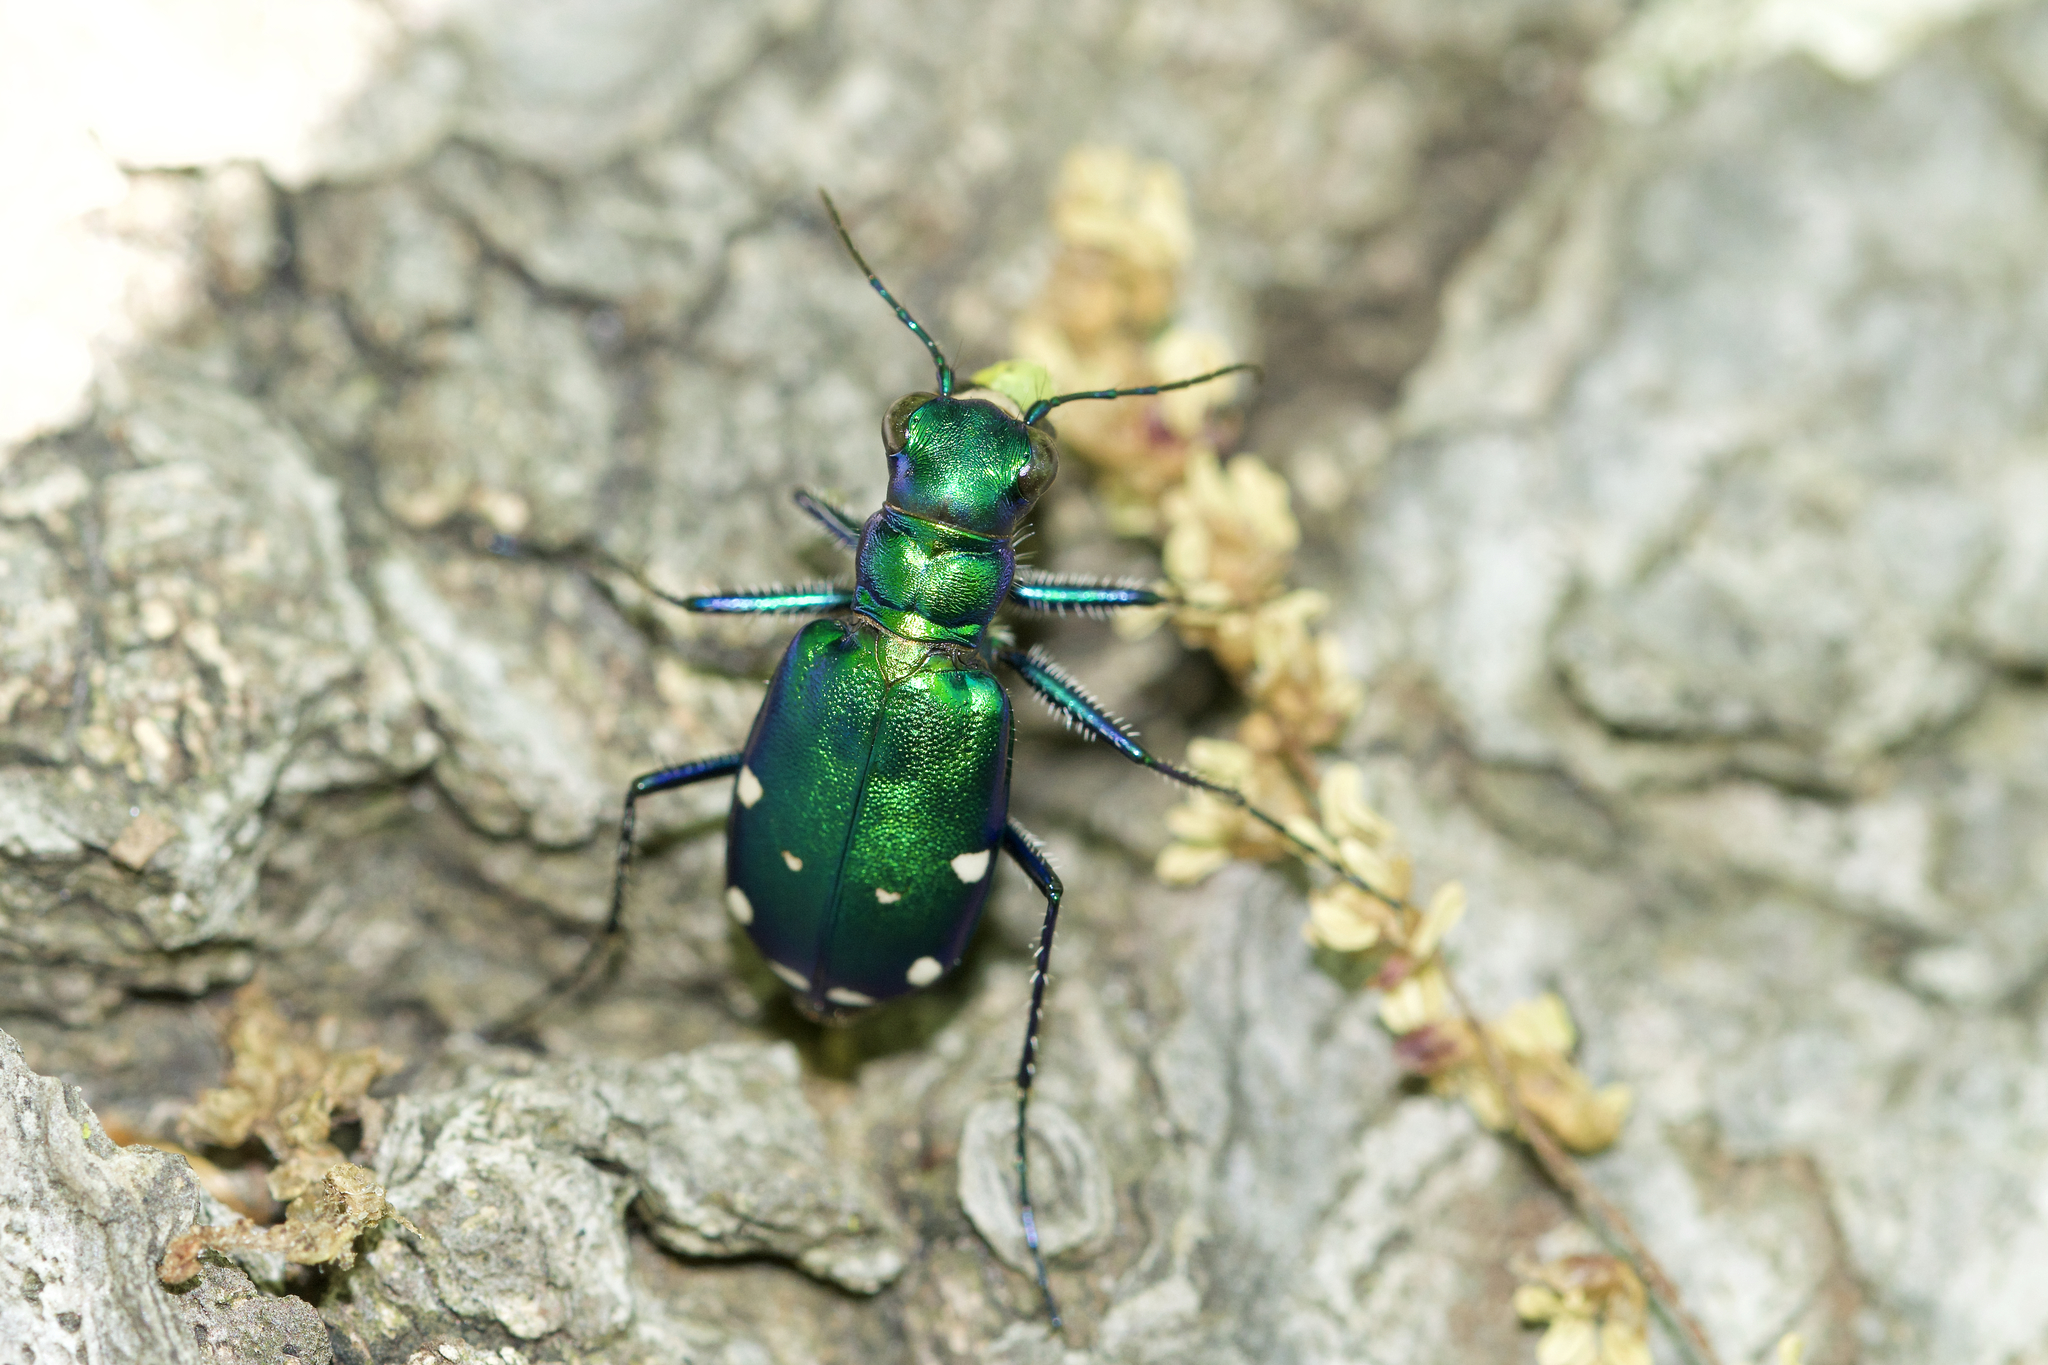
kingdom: Animalia
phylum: Arthropoda
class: Insecta
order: Coleoptera
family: Carabidae
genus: Cicindela
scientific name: Cicindela sexguttata
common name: Six-spotted tiger beetle
